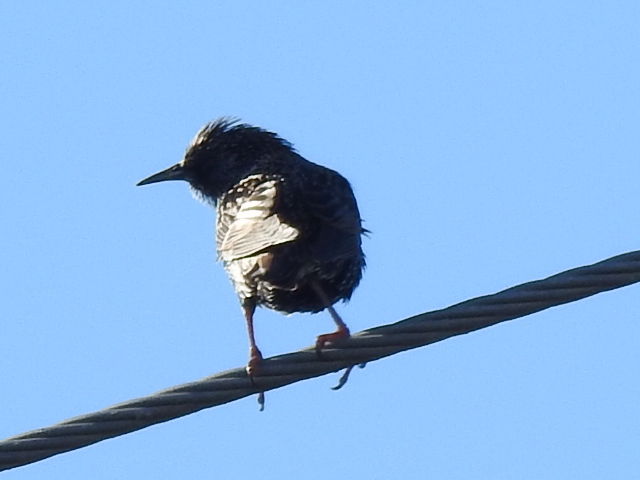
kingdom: Animalia
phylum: Chordata
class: Aves
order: Passeriformes
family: Sturnidae
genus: Sturnus
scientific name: Sturnus vulgaris
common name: Common starling
